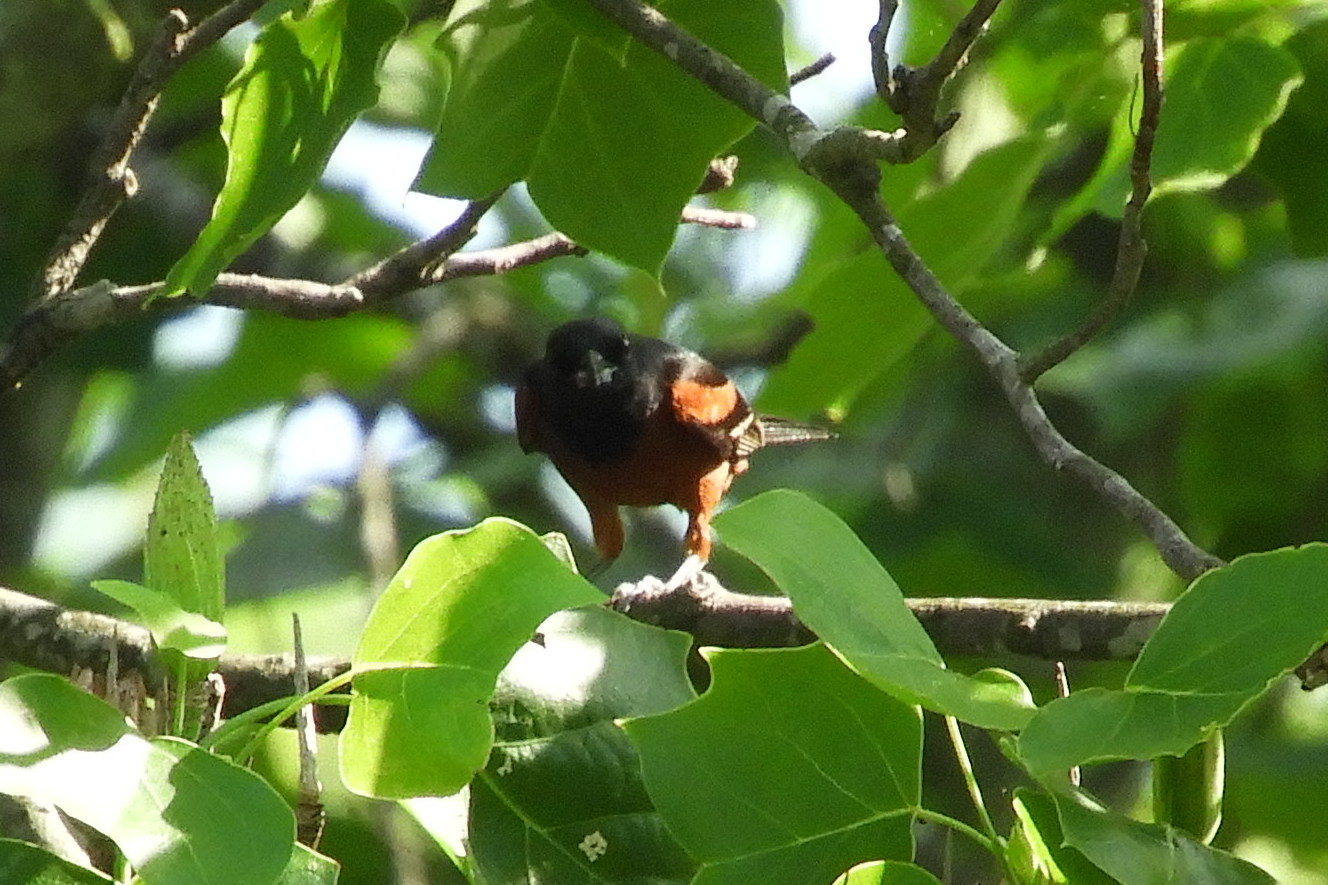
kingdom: Animalia
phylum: Chordata
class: Aves
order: Passeriformes
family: Icteridae
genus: Icterus
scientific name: Icterus spurius
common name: Orchard oriole
